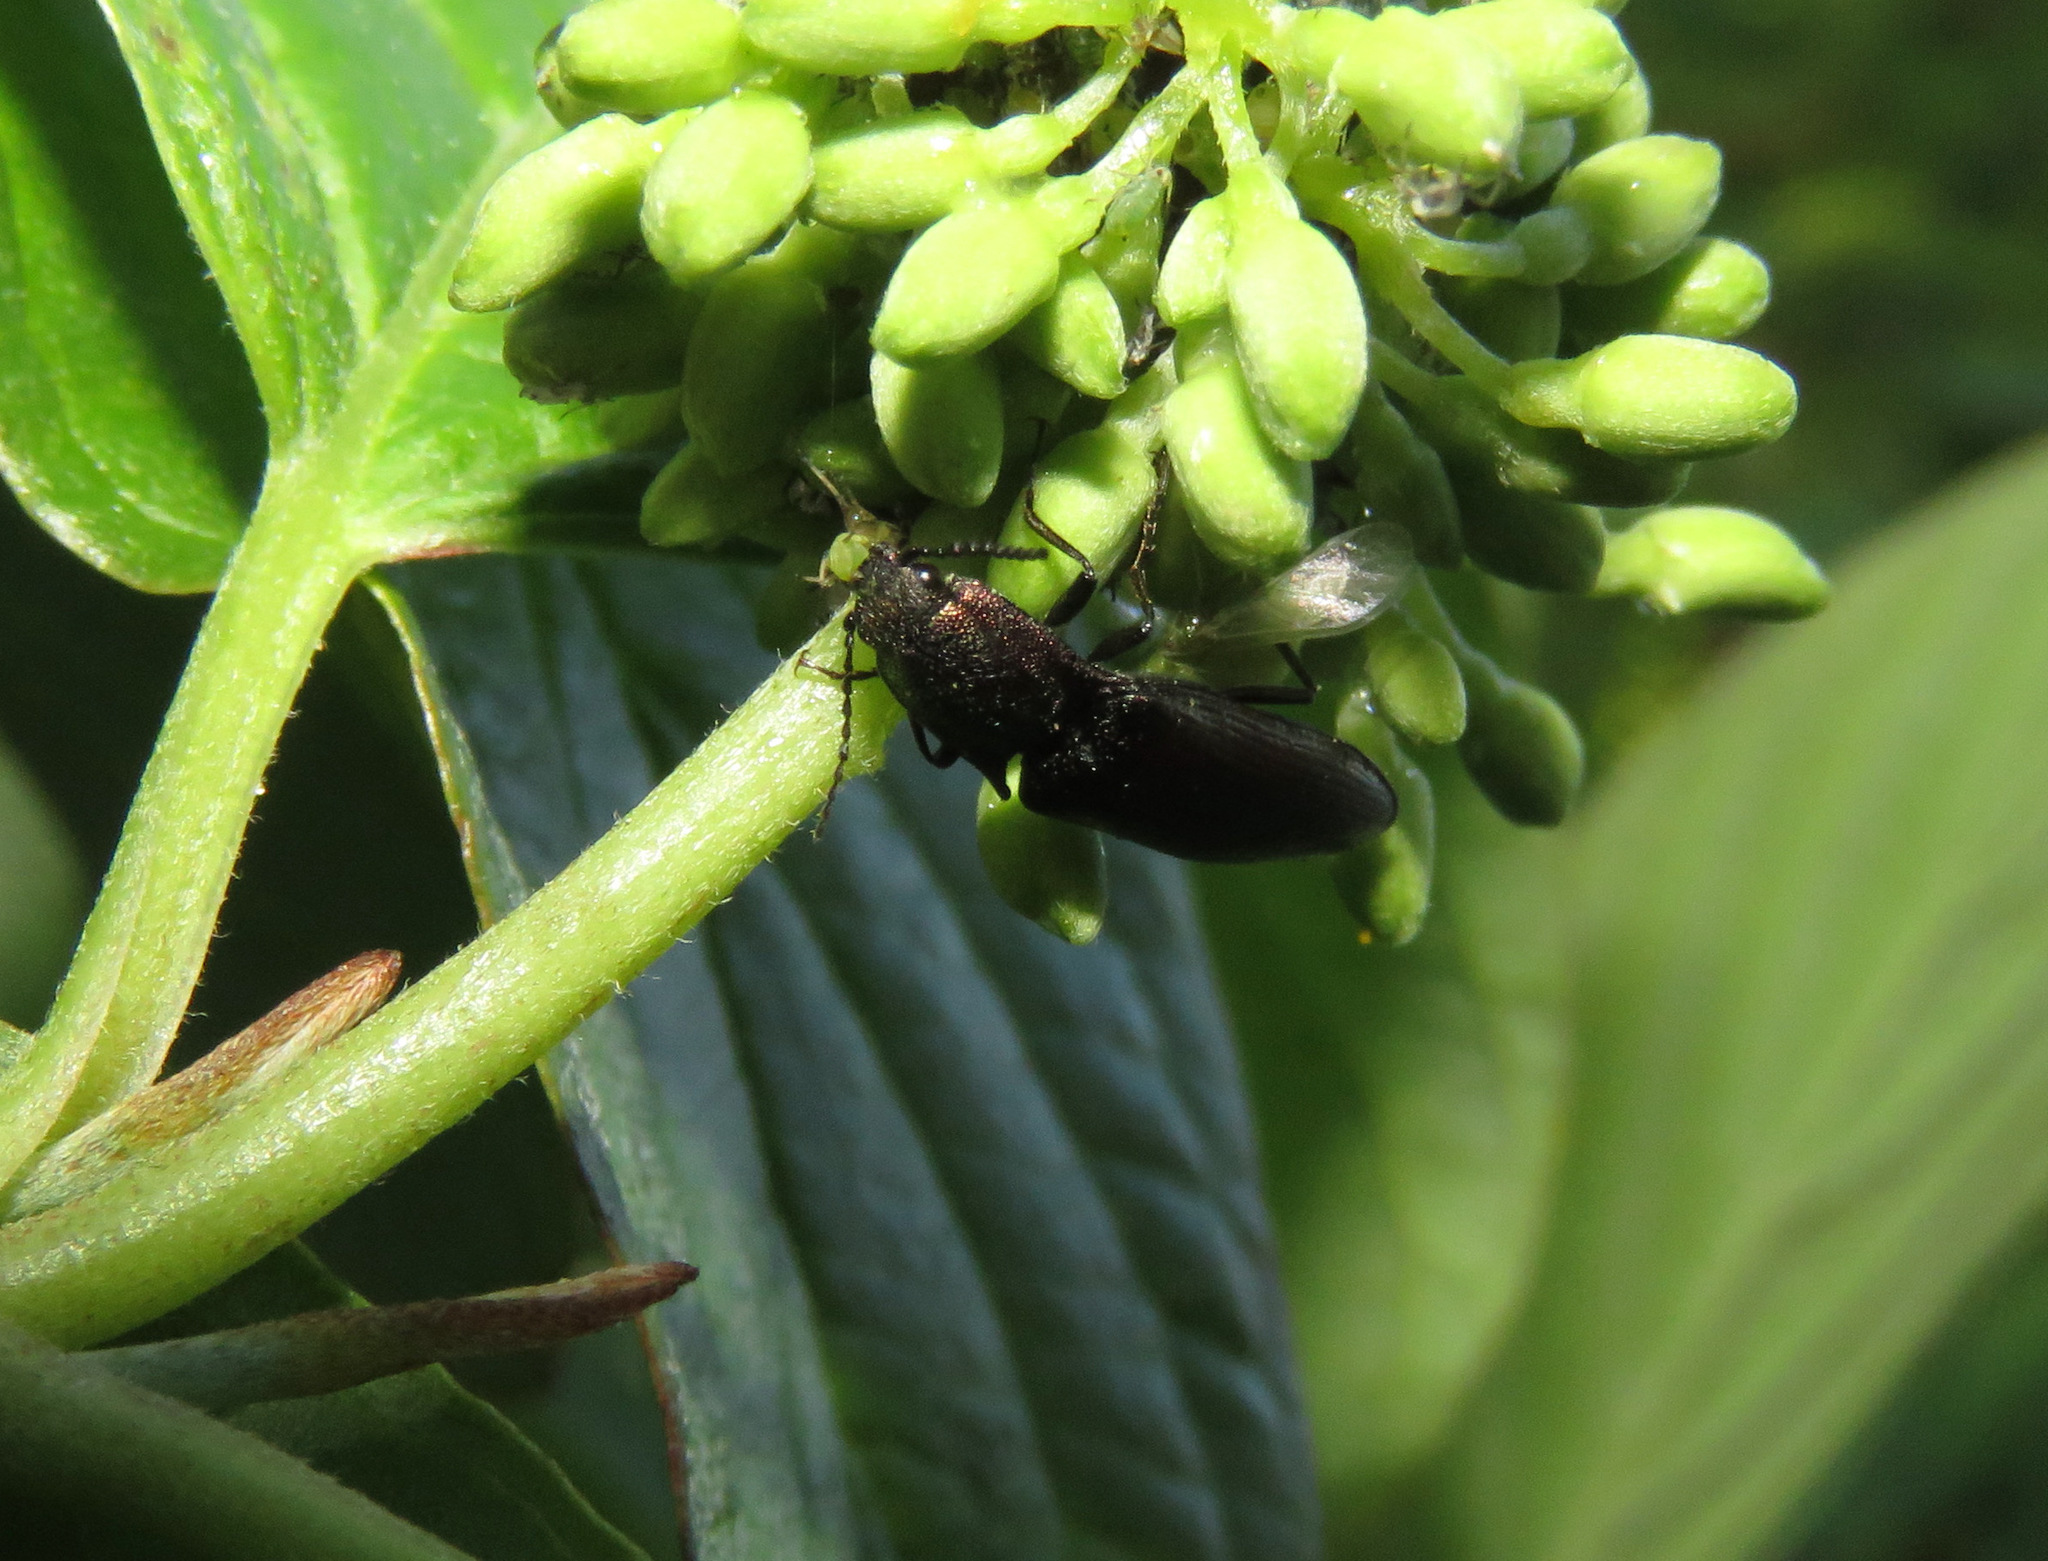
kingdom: Animalia
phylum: Arthropoda
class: Insecta
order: Coleoptera
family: Elateridae
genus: Nitidolimonius
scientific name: Nitidolimonius resplendens
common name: Resplendent click beetle
